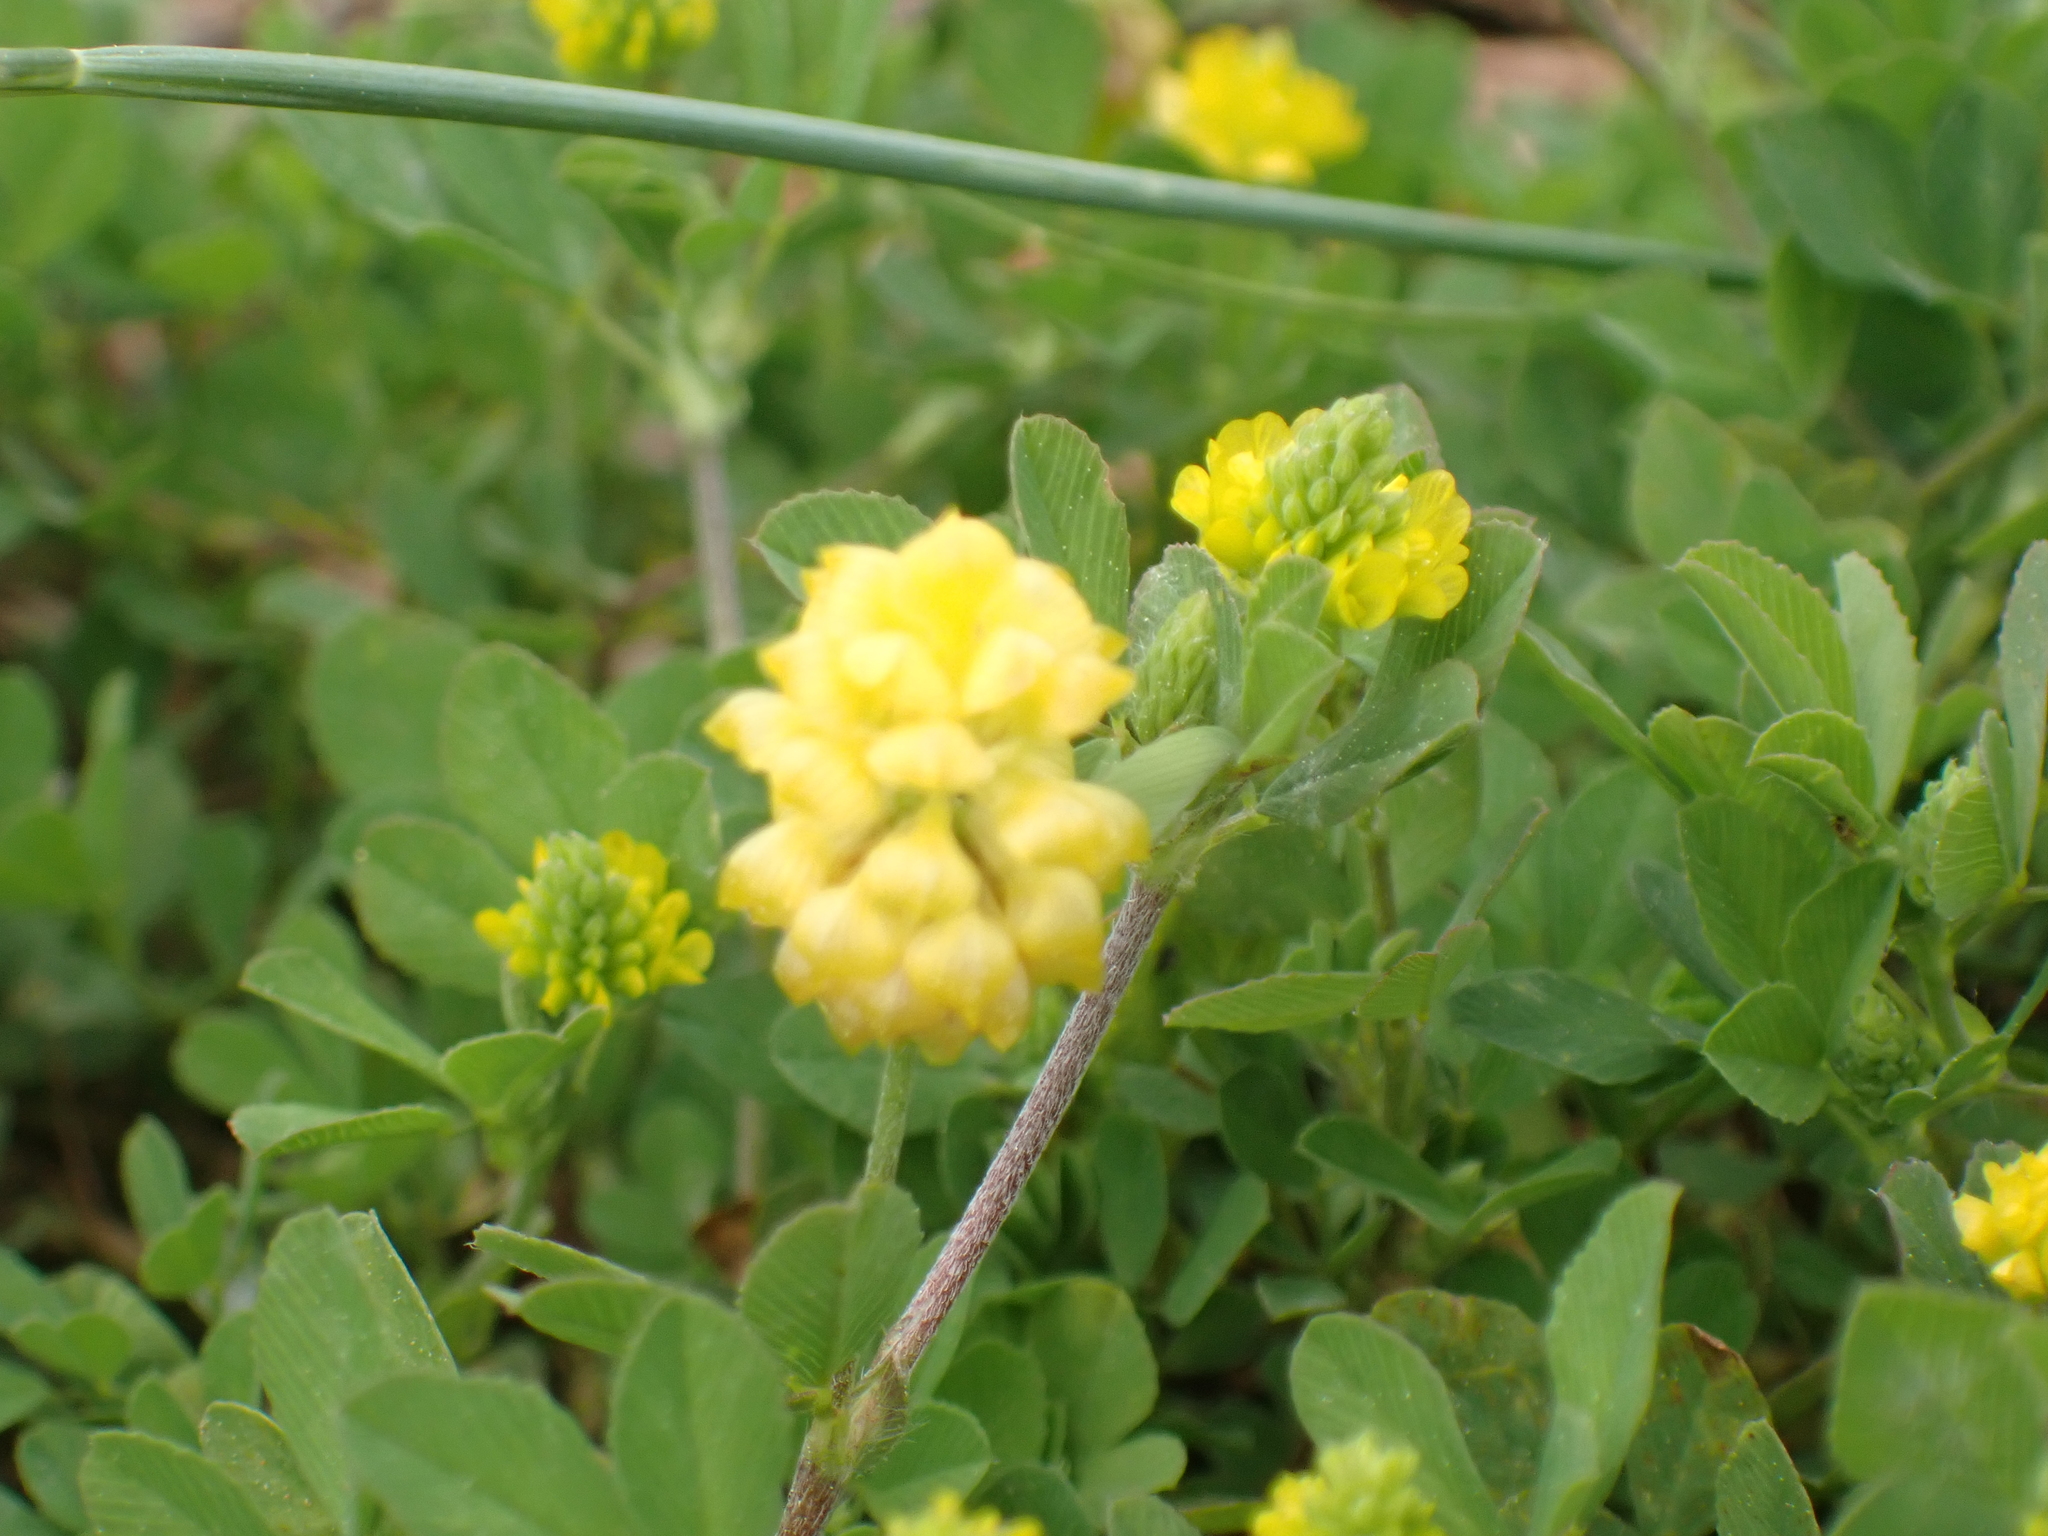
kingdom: Plantae
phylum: Tracheophyta
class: Magnoliopsida
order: Fabales
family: Fabaceae
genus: Trifolium
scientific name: Trifolium campestre
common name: Field clover
